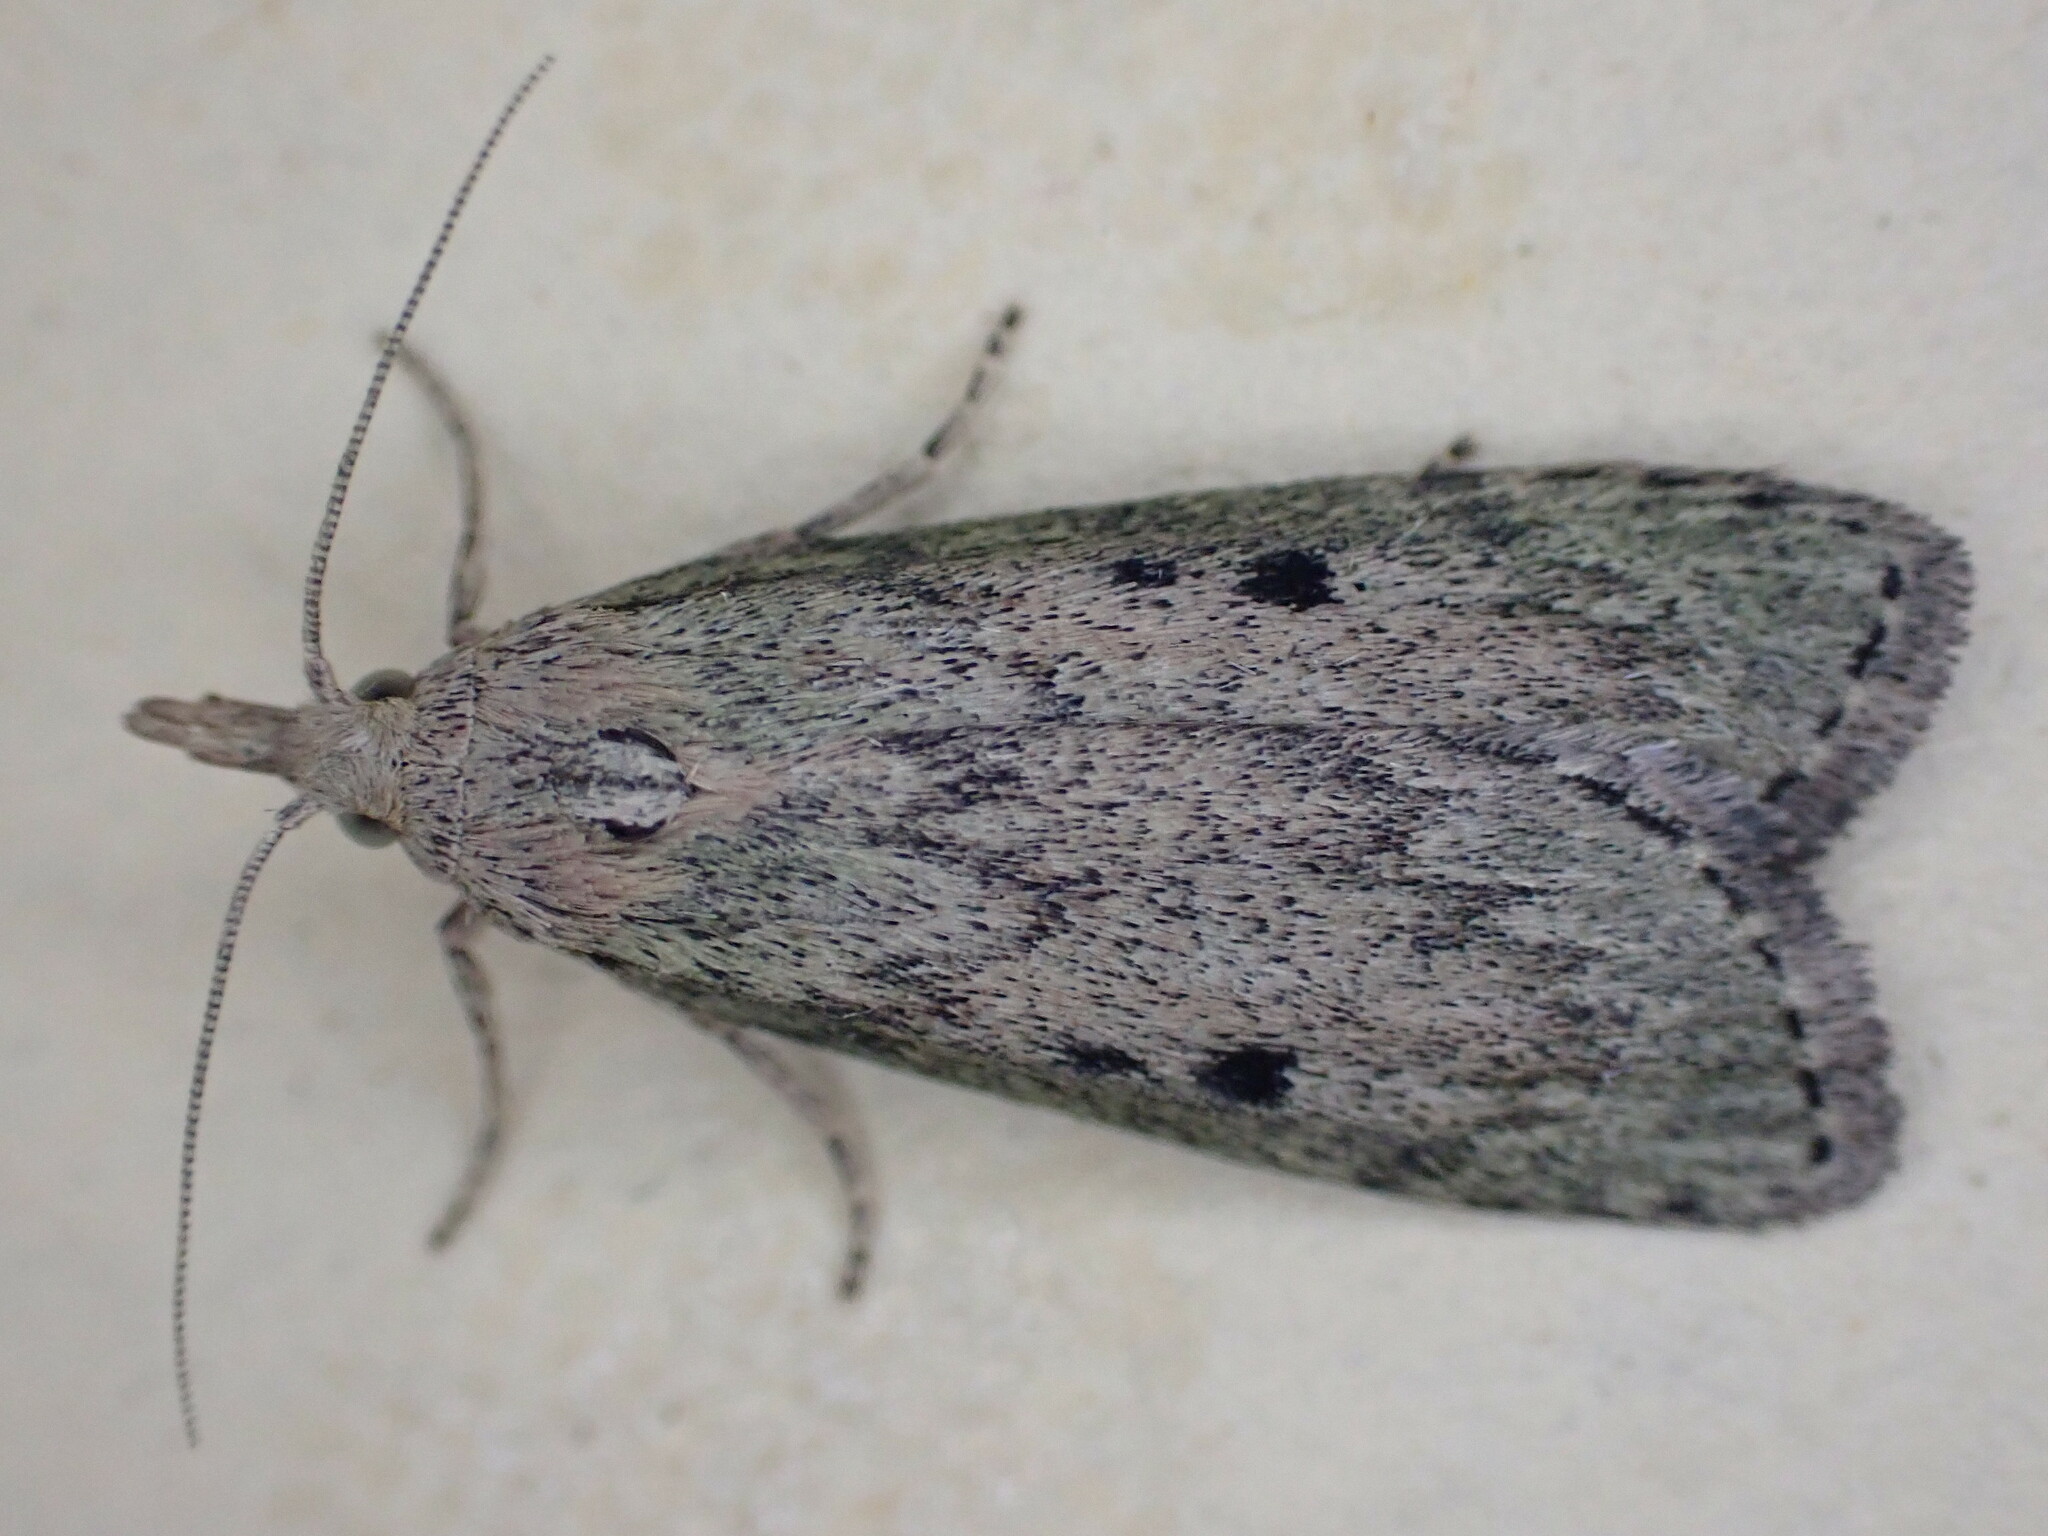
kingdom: Animalia
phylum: Arthropoda
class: Insecta
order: Lepidoptera
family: Pyralidae
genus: Aphomia
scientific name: Aphomia sociella
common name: Bee moth
